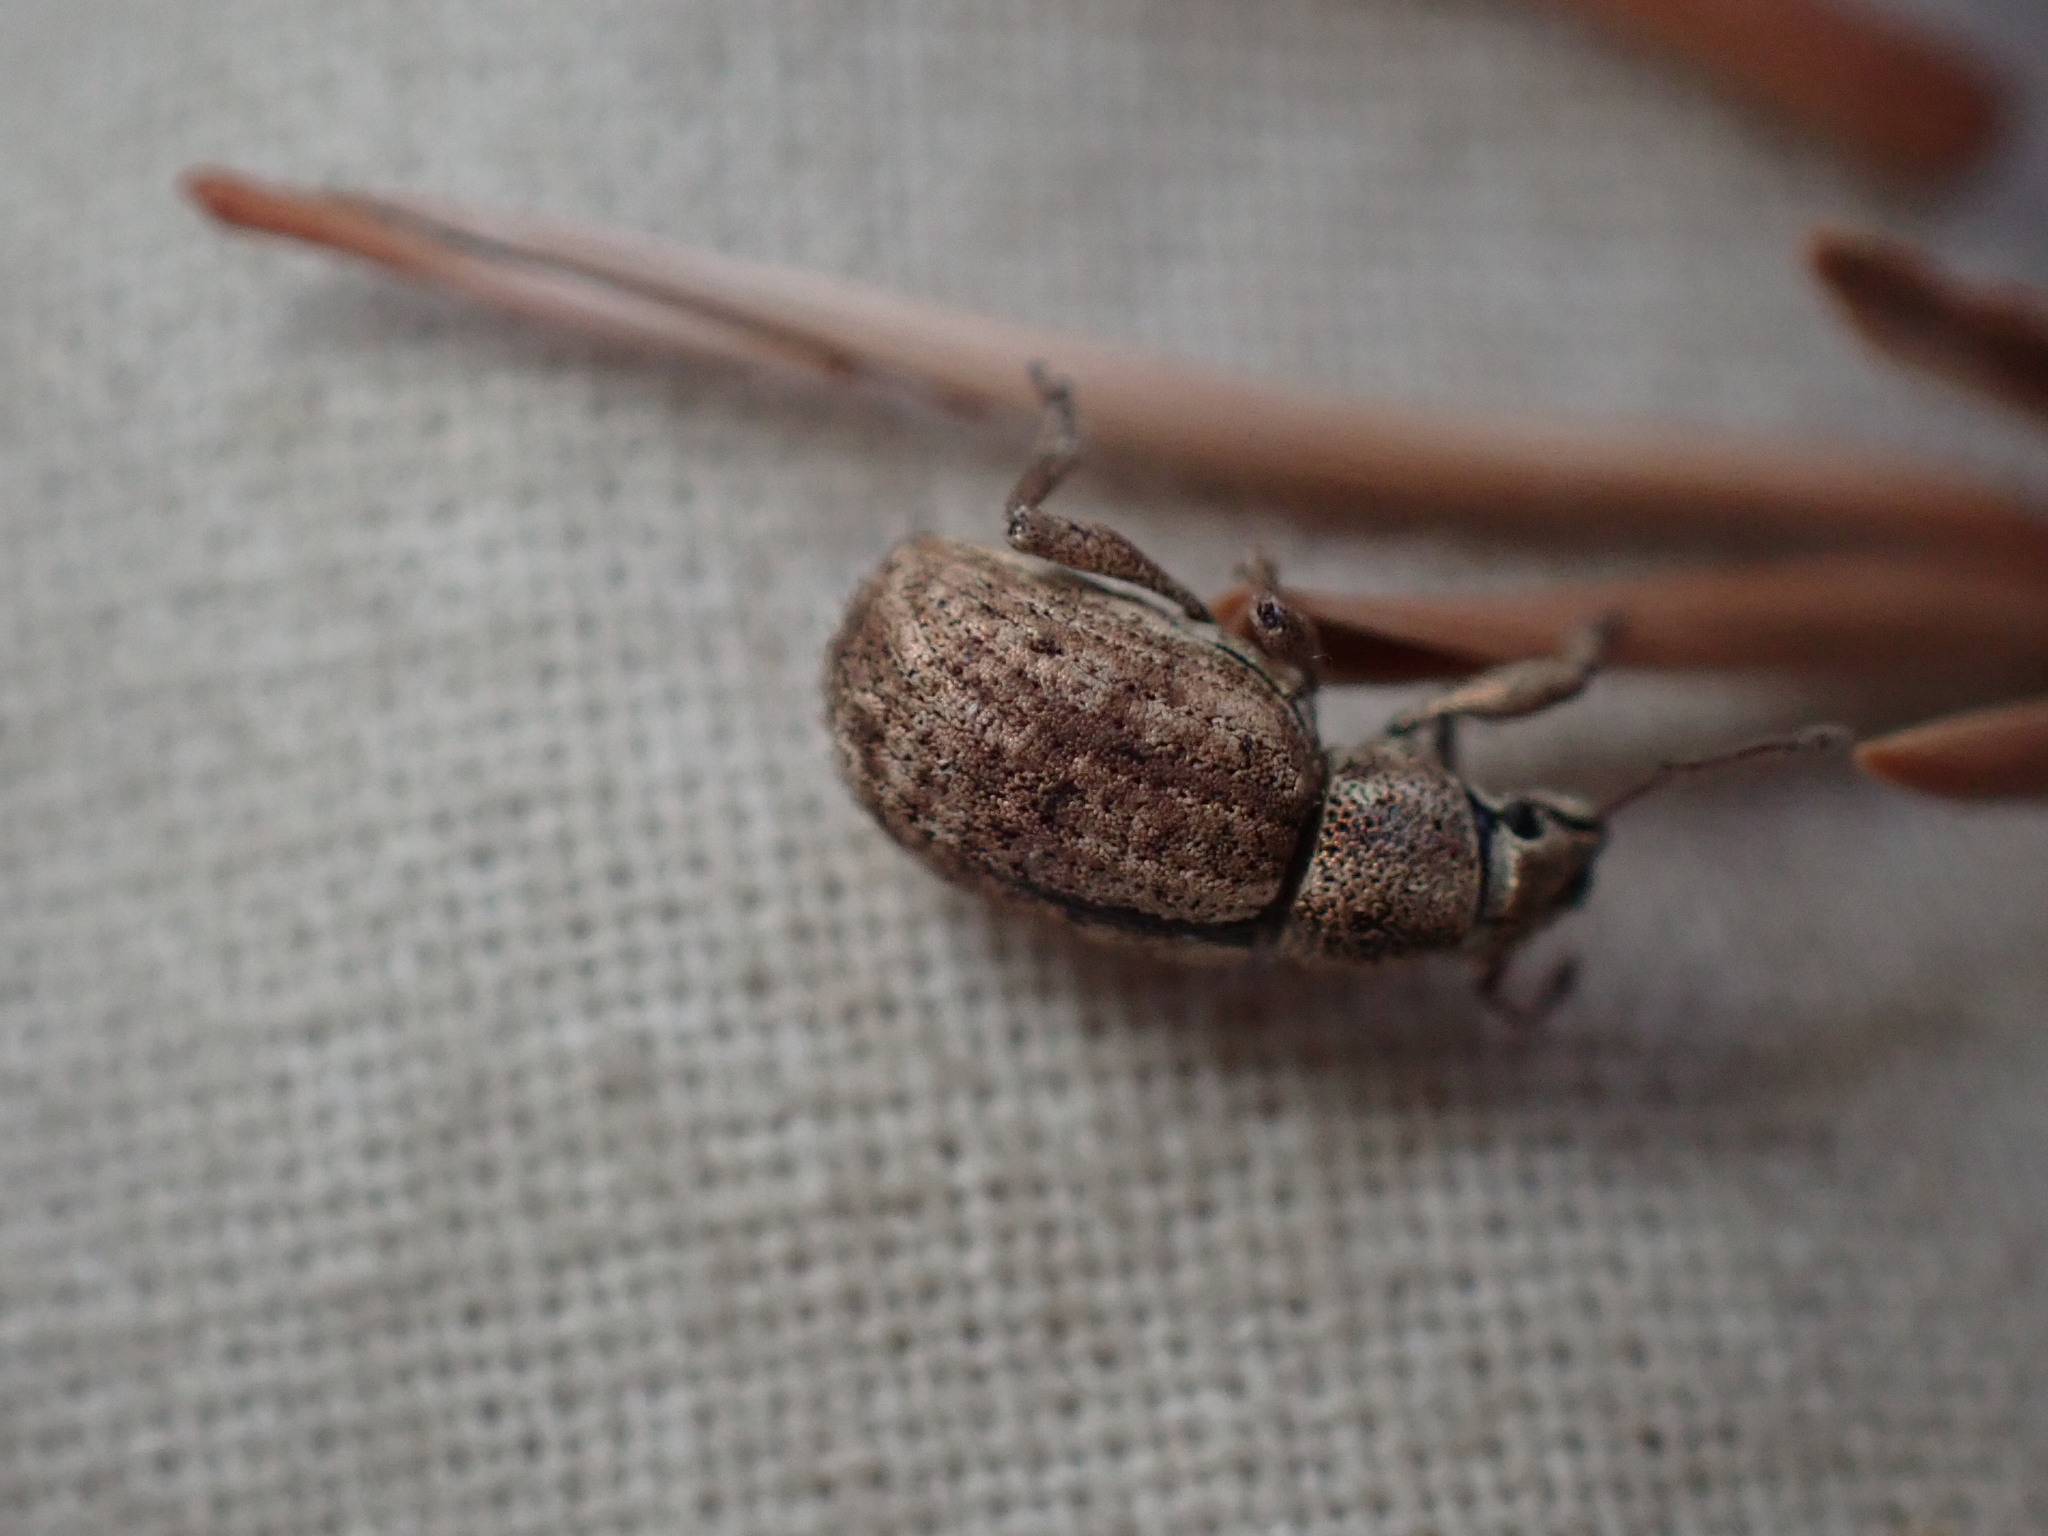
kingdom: Animalia
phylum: Arthropoda
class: Insecta
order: Coleoptera
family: Curculionidae
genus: Strophosoma
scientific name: Strophosoma melanogrammum
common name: Weevil
